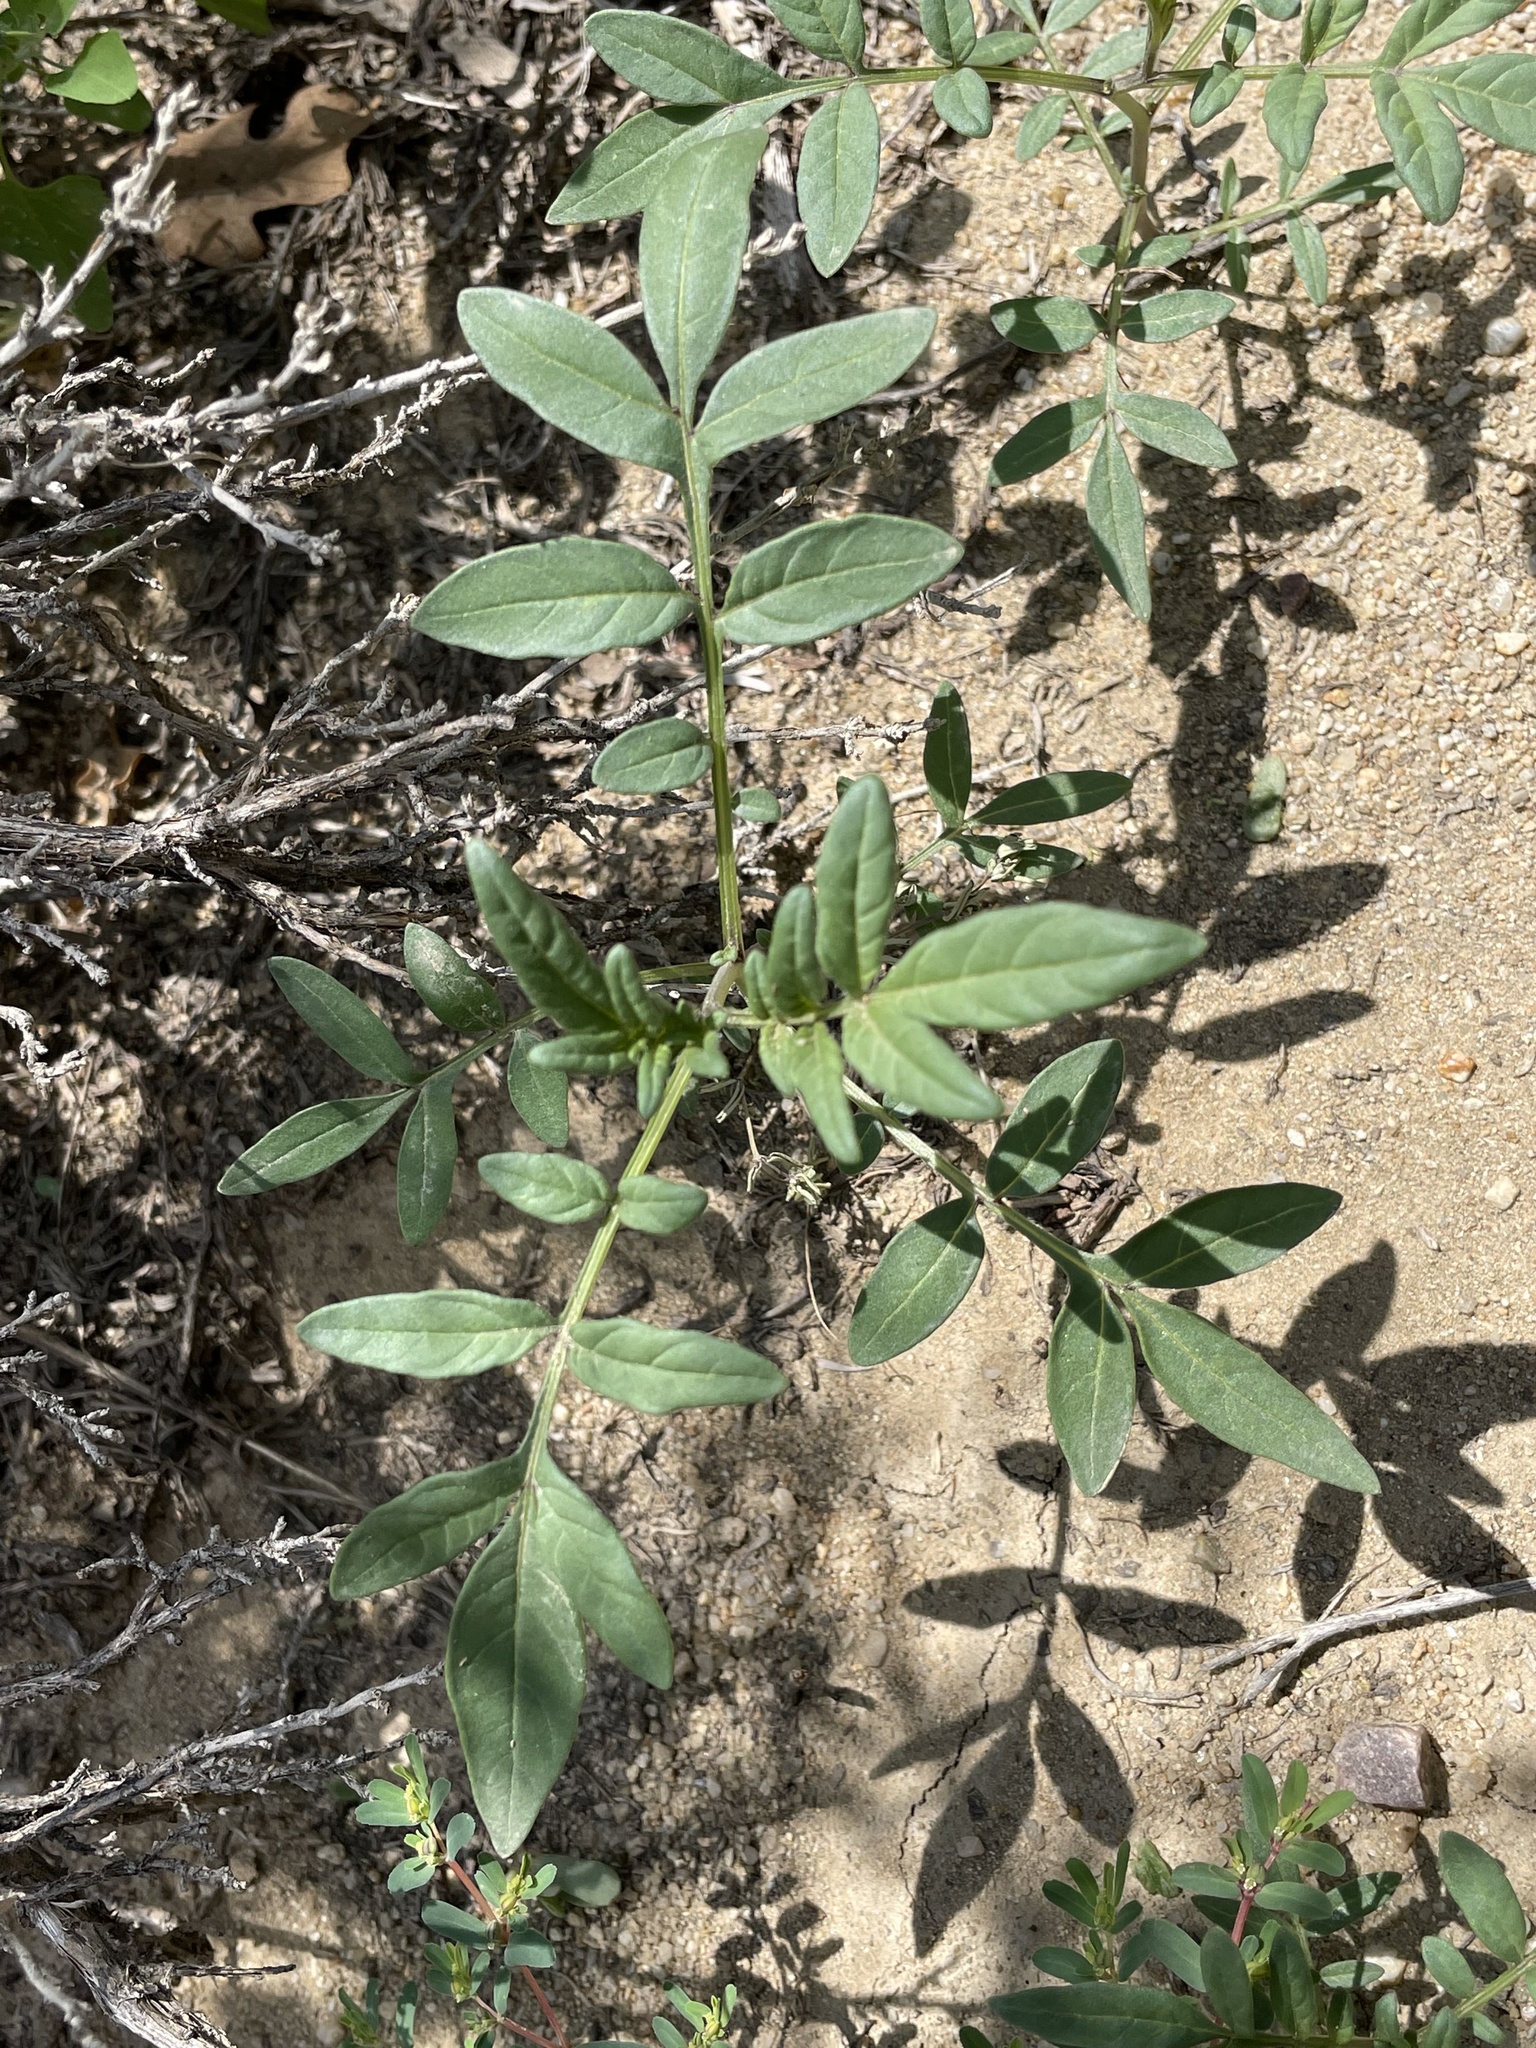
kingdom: Plantae
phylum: Tracheophyta
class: Magnoliopsida
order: Solanales
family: Solanaceae
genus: Solanum
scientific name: Solanum jamesii
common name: Wild potato
